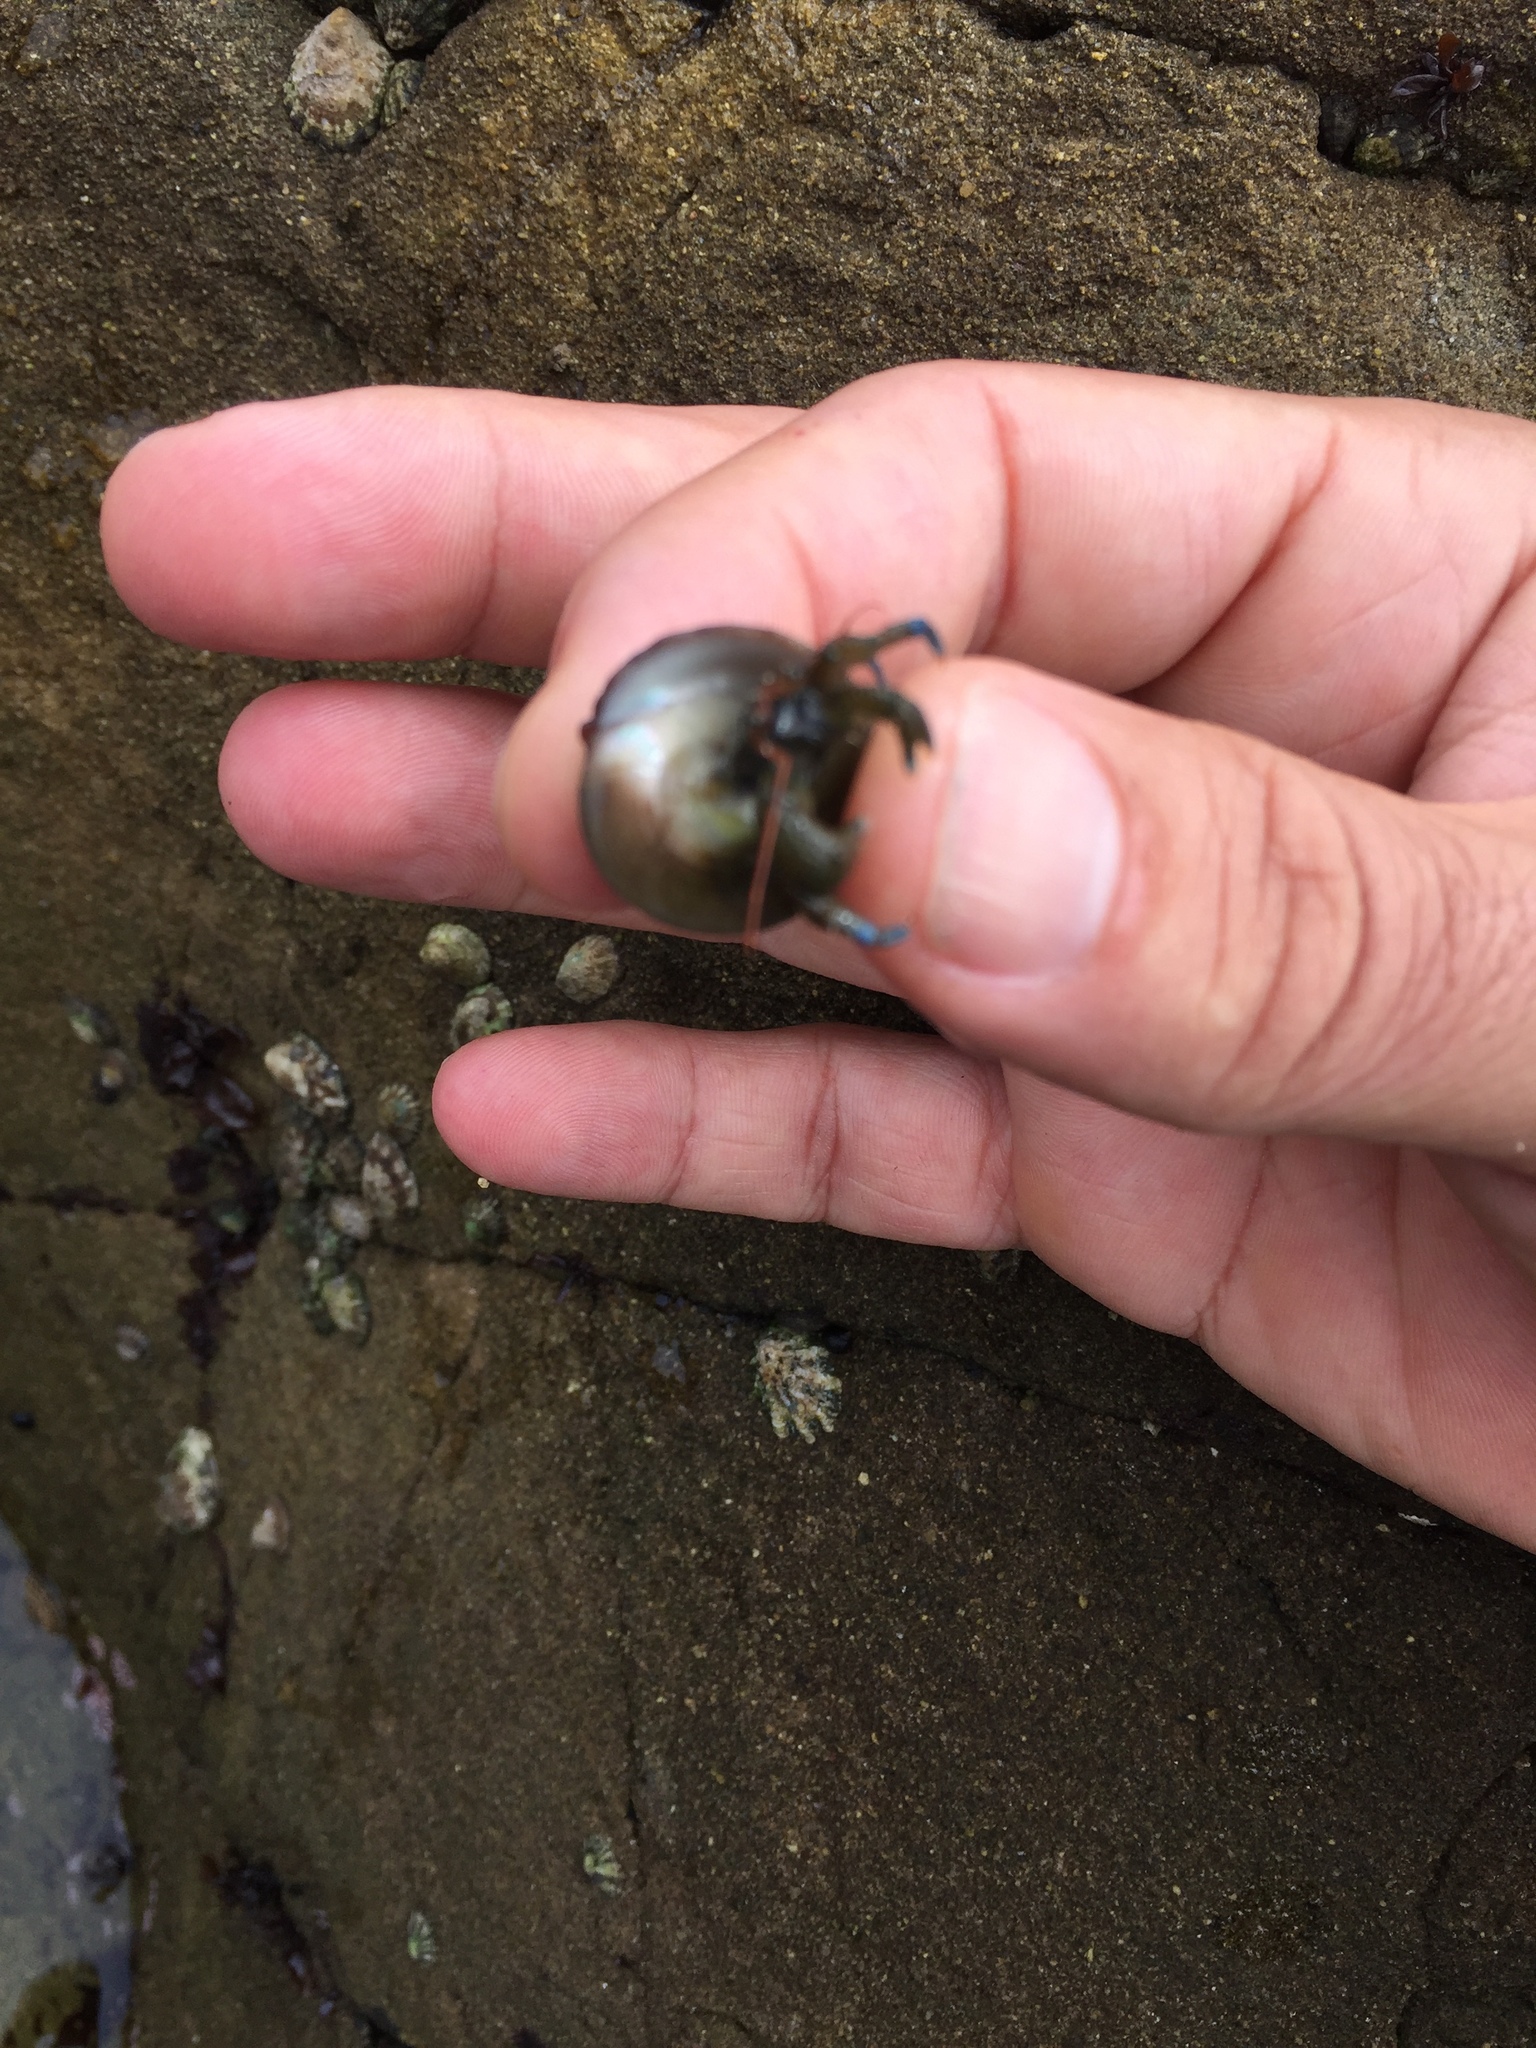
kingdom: Animalia
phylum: Arthropoda
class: Malacostraca
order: Decapoda
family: Paguridae
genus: Pagurus
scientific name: Pagurus samuelis
